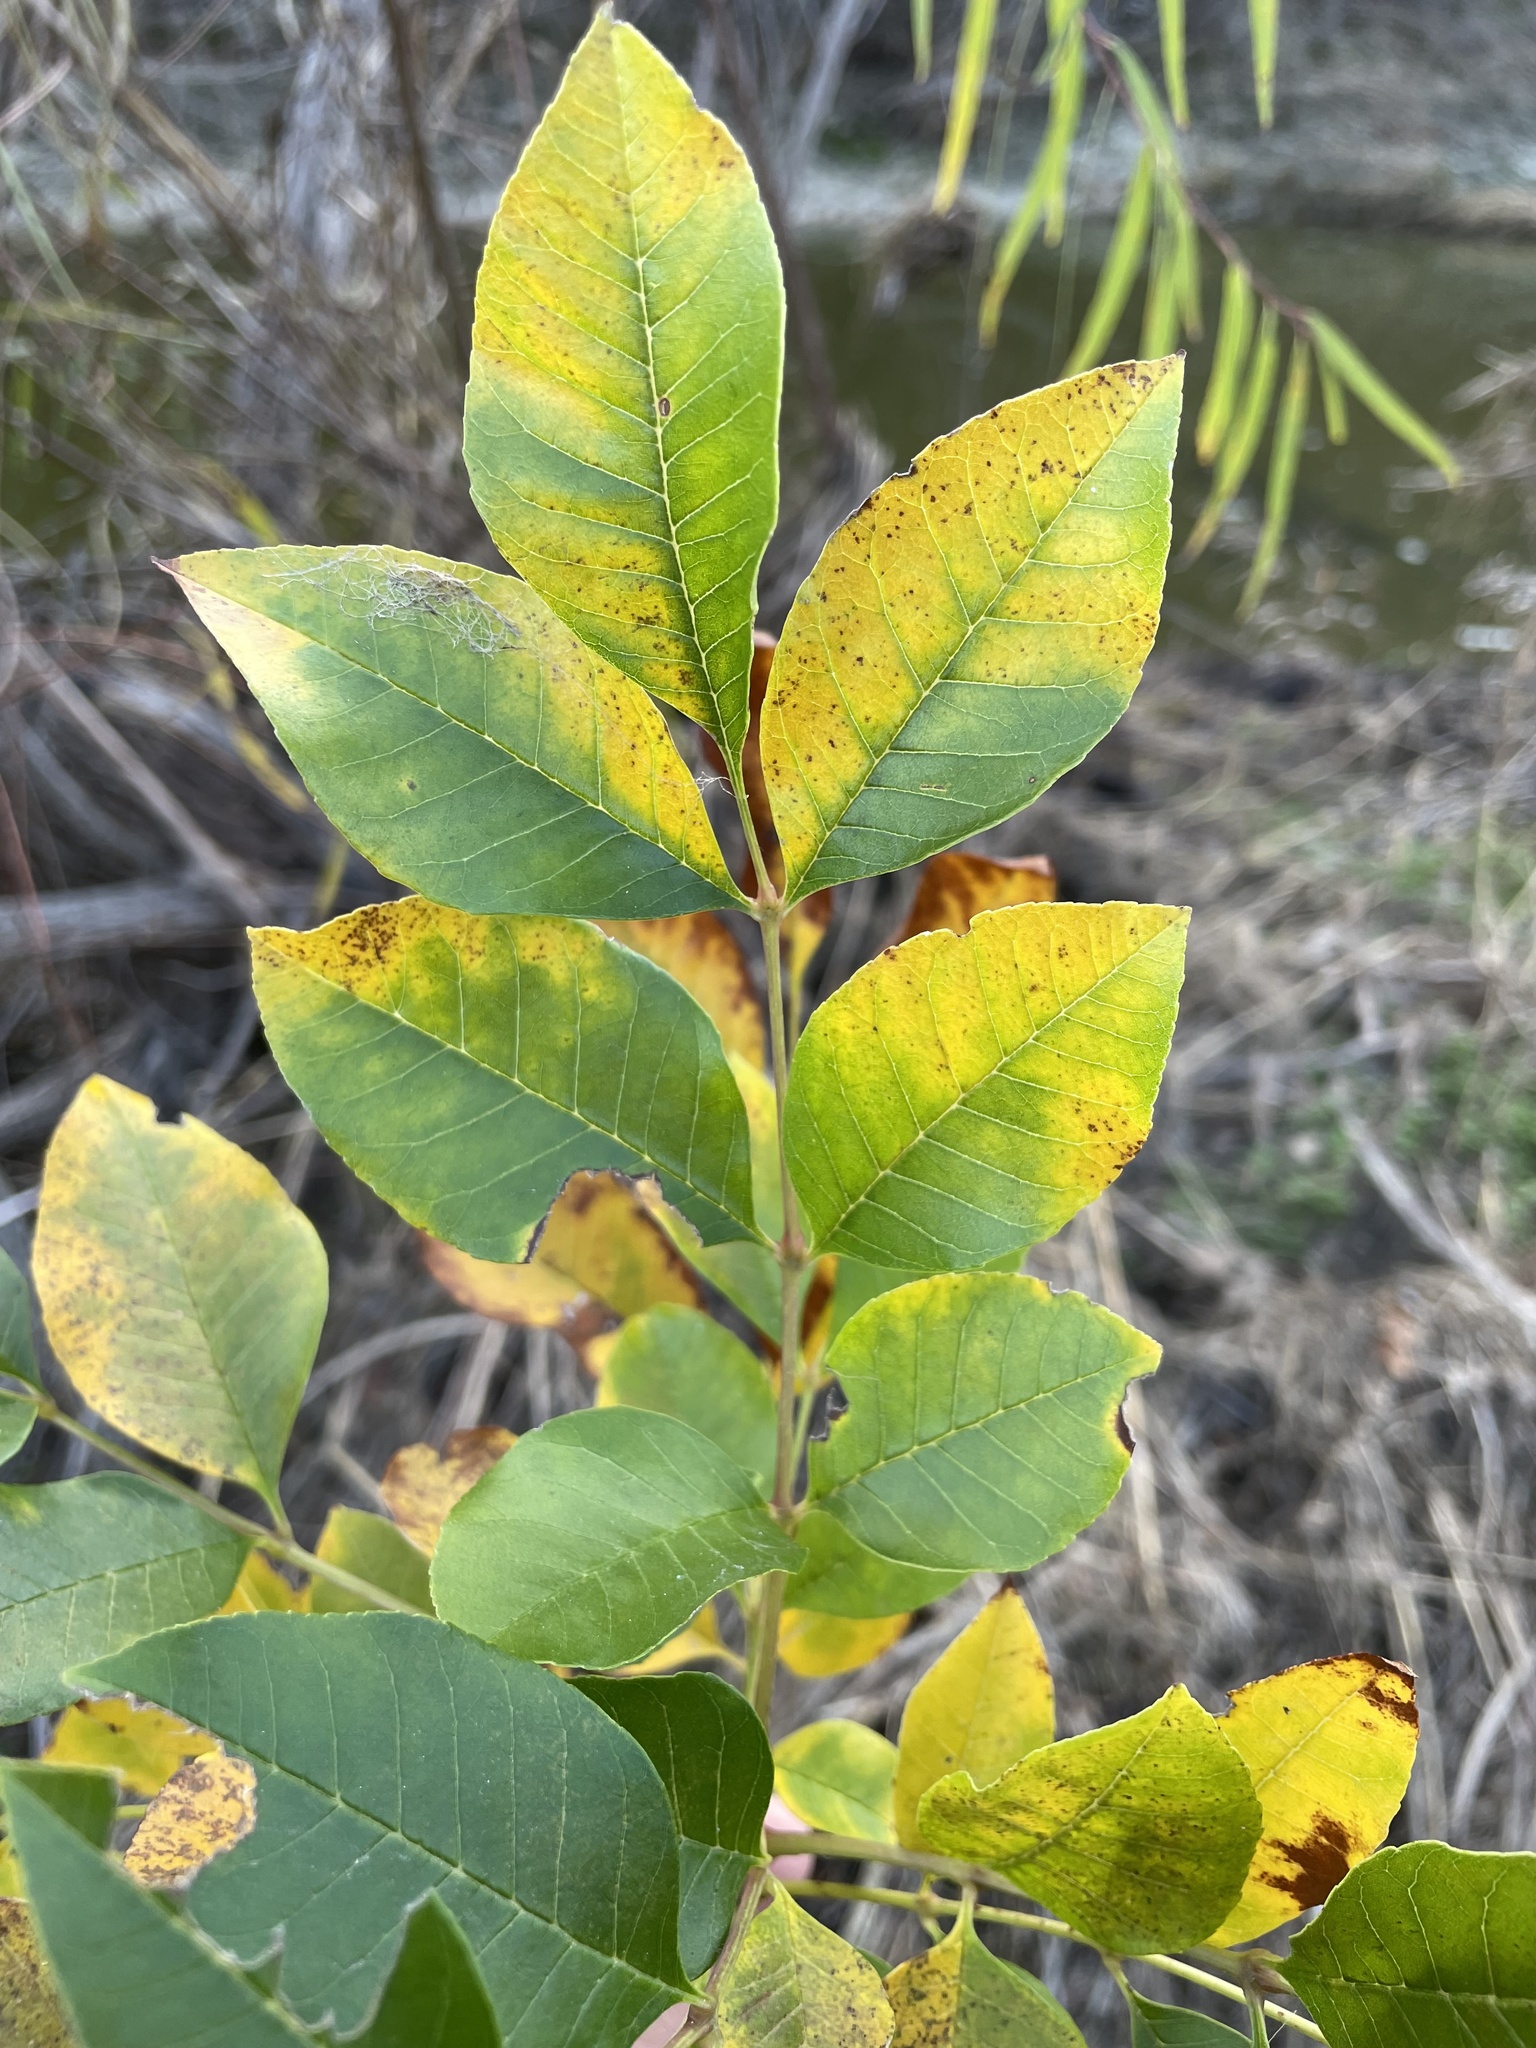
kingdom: Plantae
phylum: Tracheophyta
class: Magnoliopsida
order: Lamiales
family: Oleaceae
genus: Fraxinus
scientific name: Fraxinus pennsylvanica
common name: Green ash
